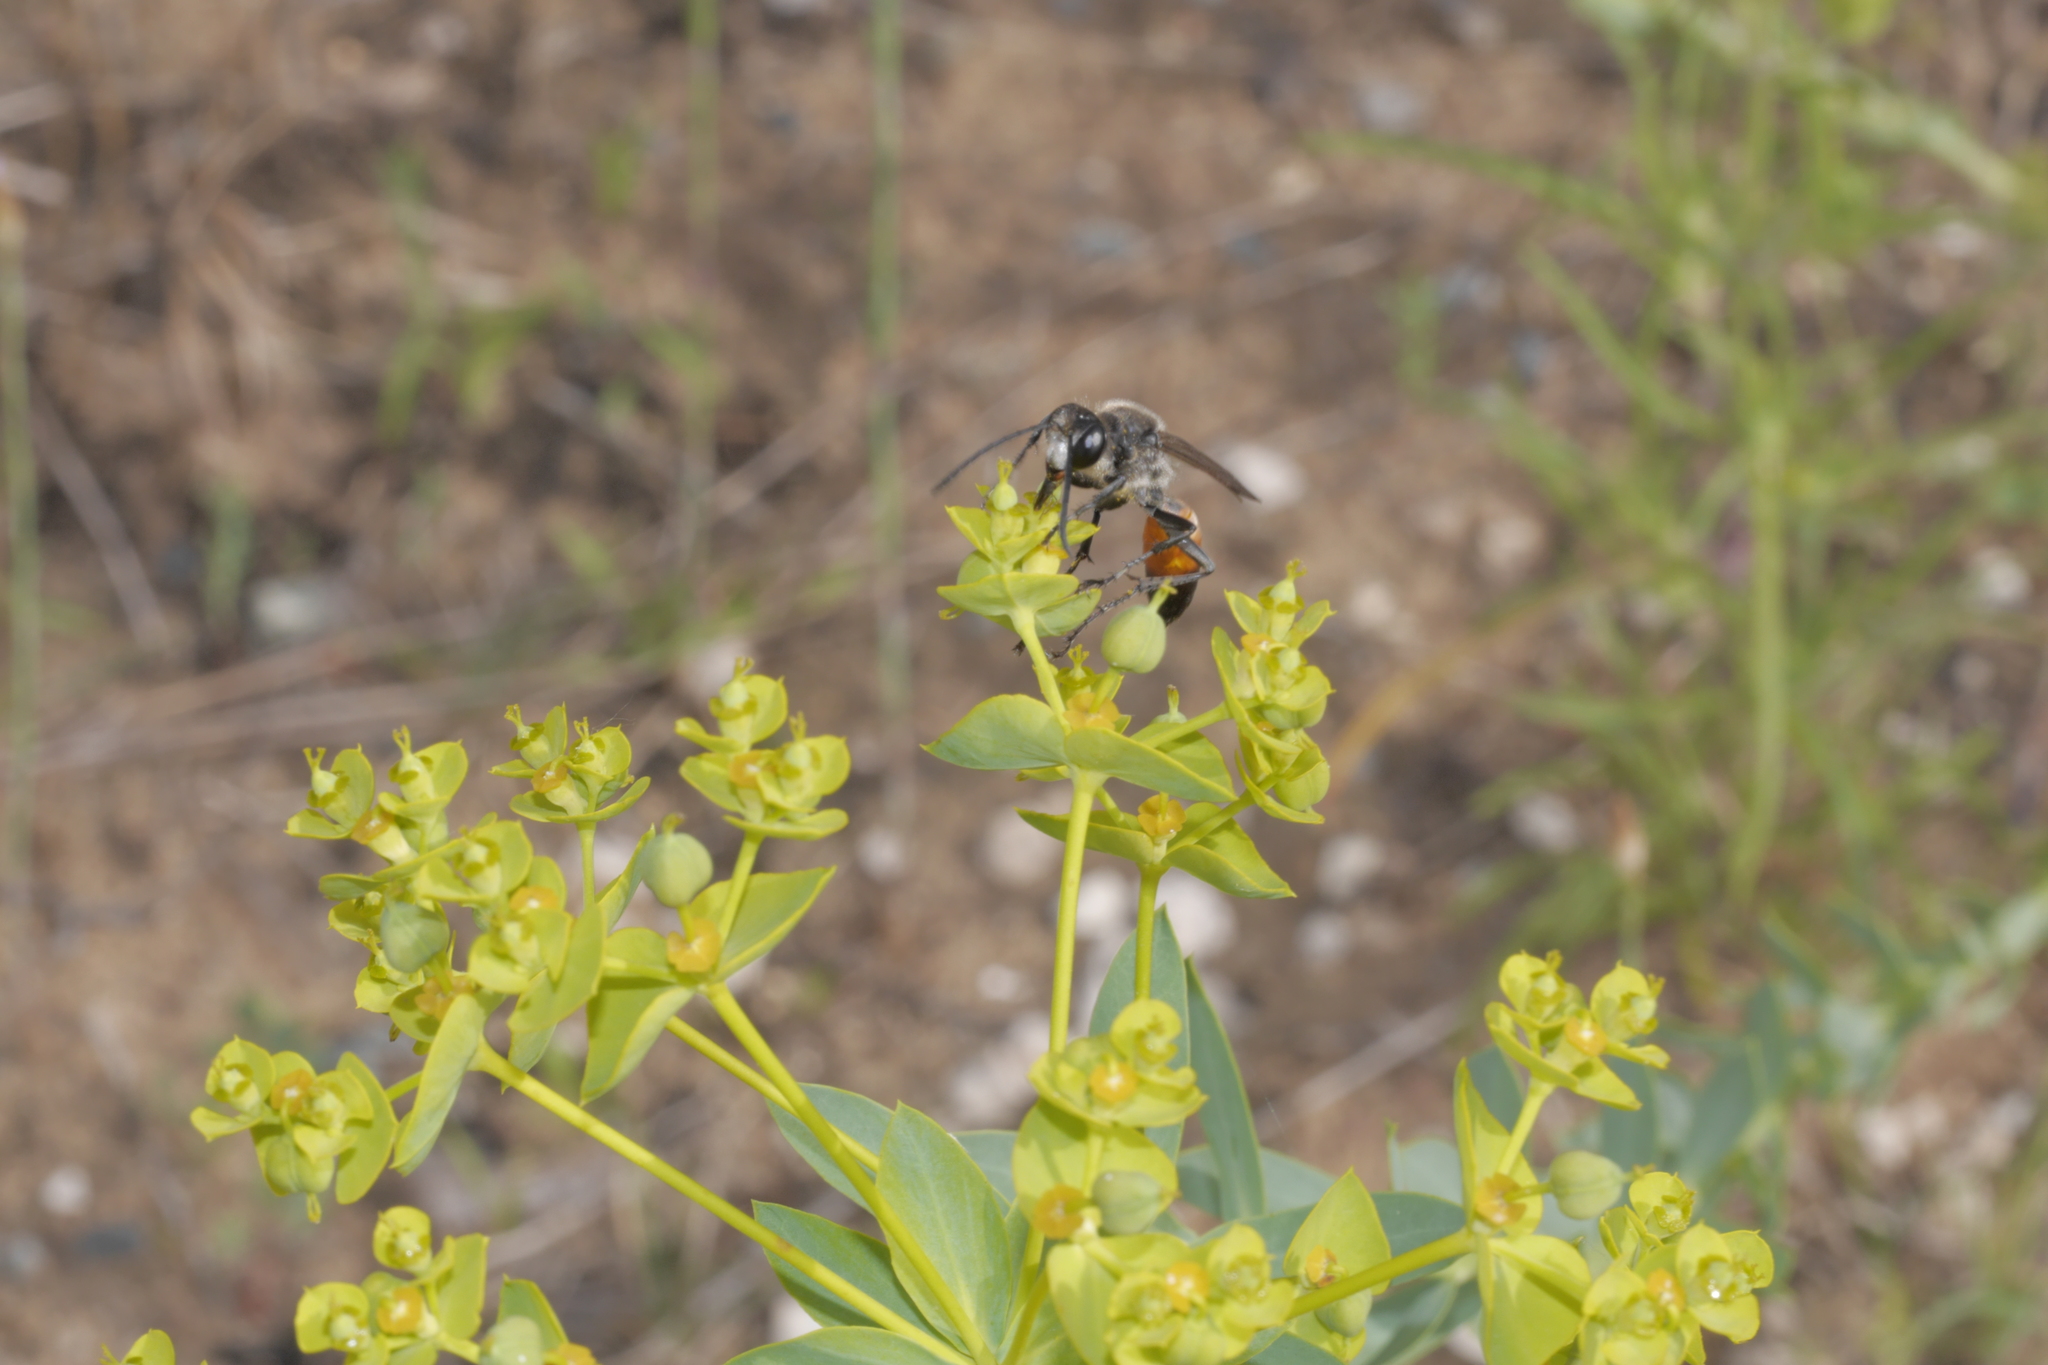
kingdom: Animalia
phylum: Arthropoda
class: Insecta
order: Hymenoptera
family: Sphecidae
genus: Sphex
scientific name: Sphex funerarius
